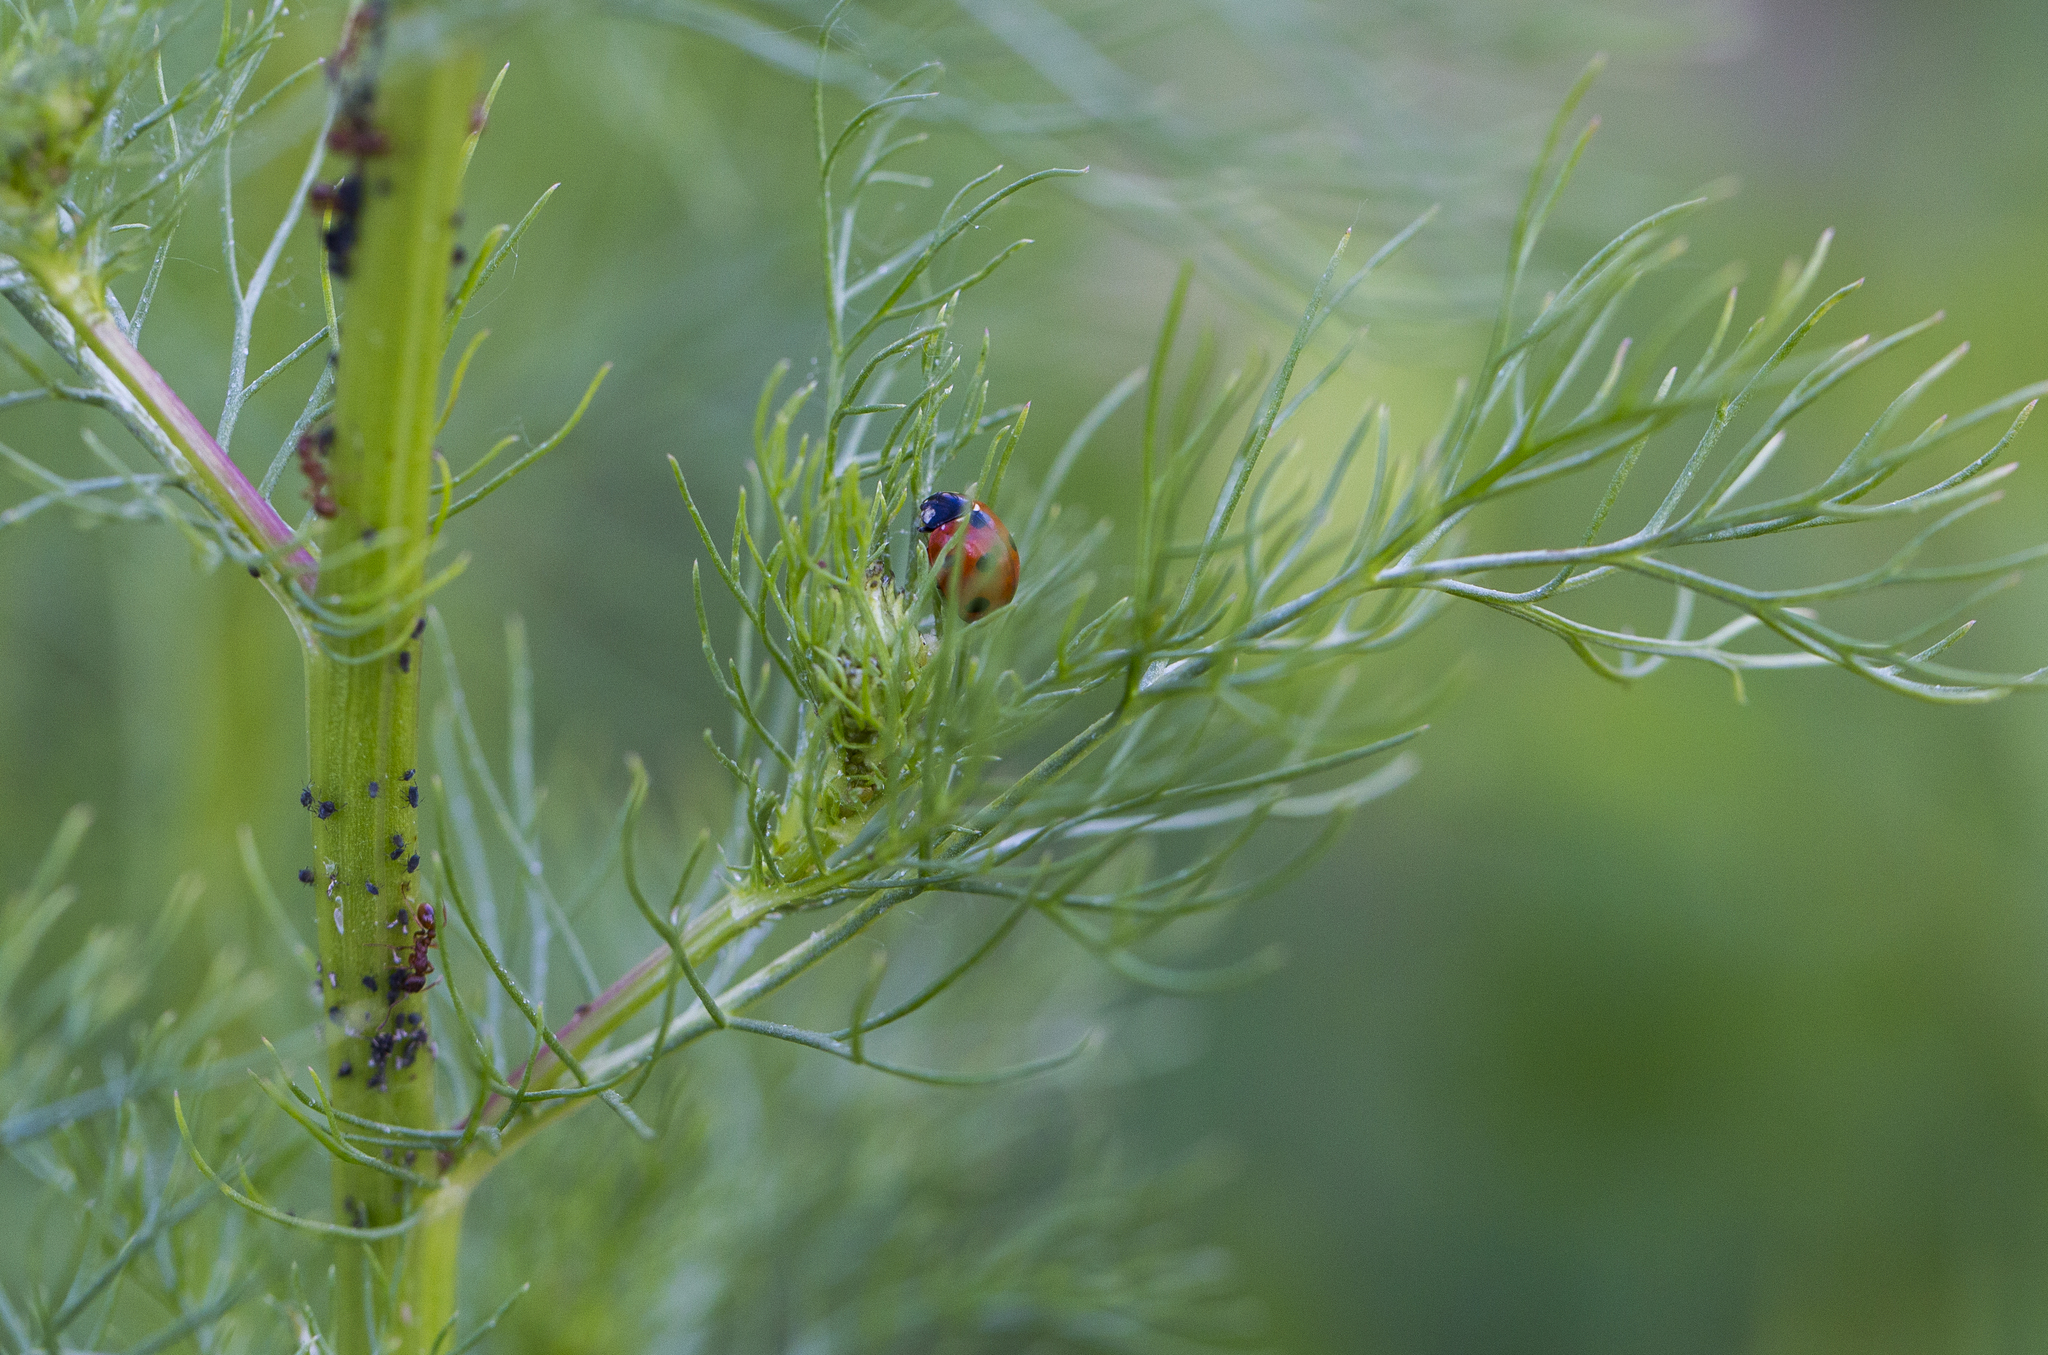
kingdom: Animalia
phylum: Arthropoda
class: Insecta
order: Coleoptera
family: Coccinellidae
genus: Coccinella
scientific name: Coccinella septempunctata
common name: Sevenspotted lady beetle
